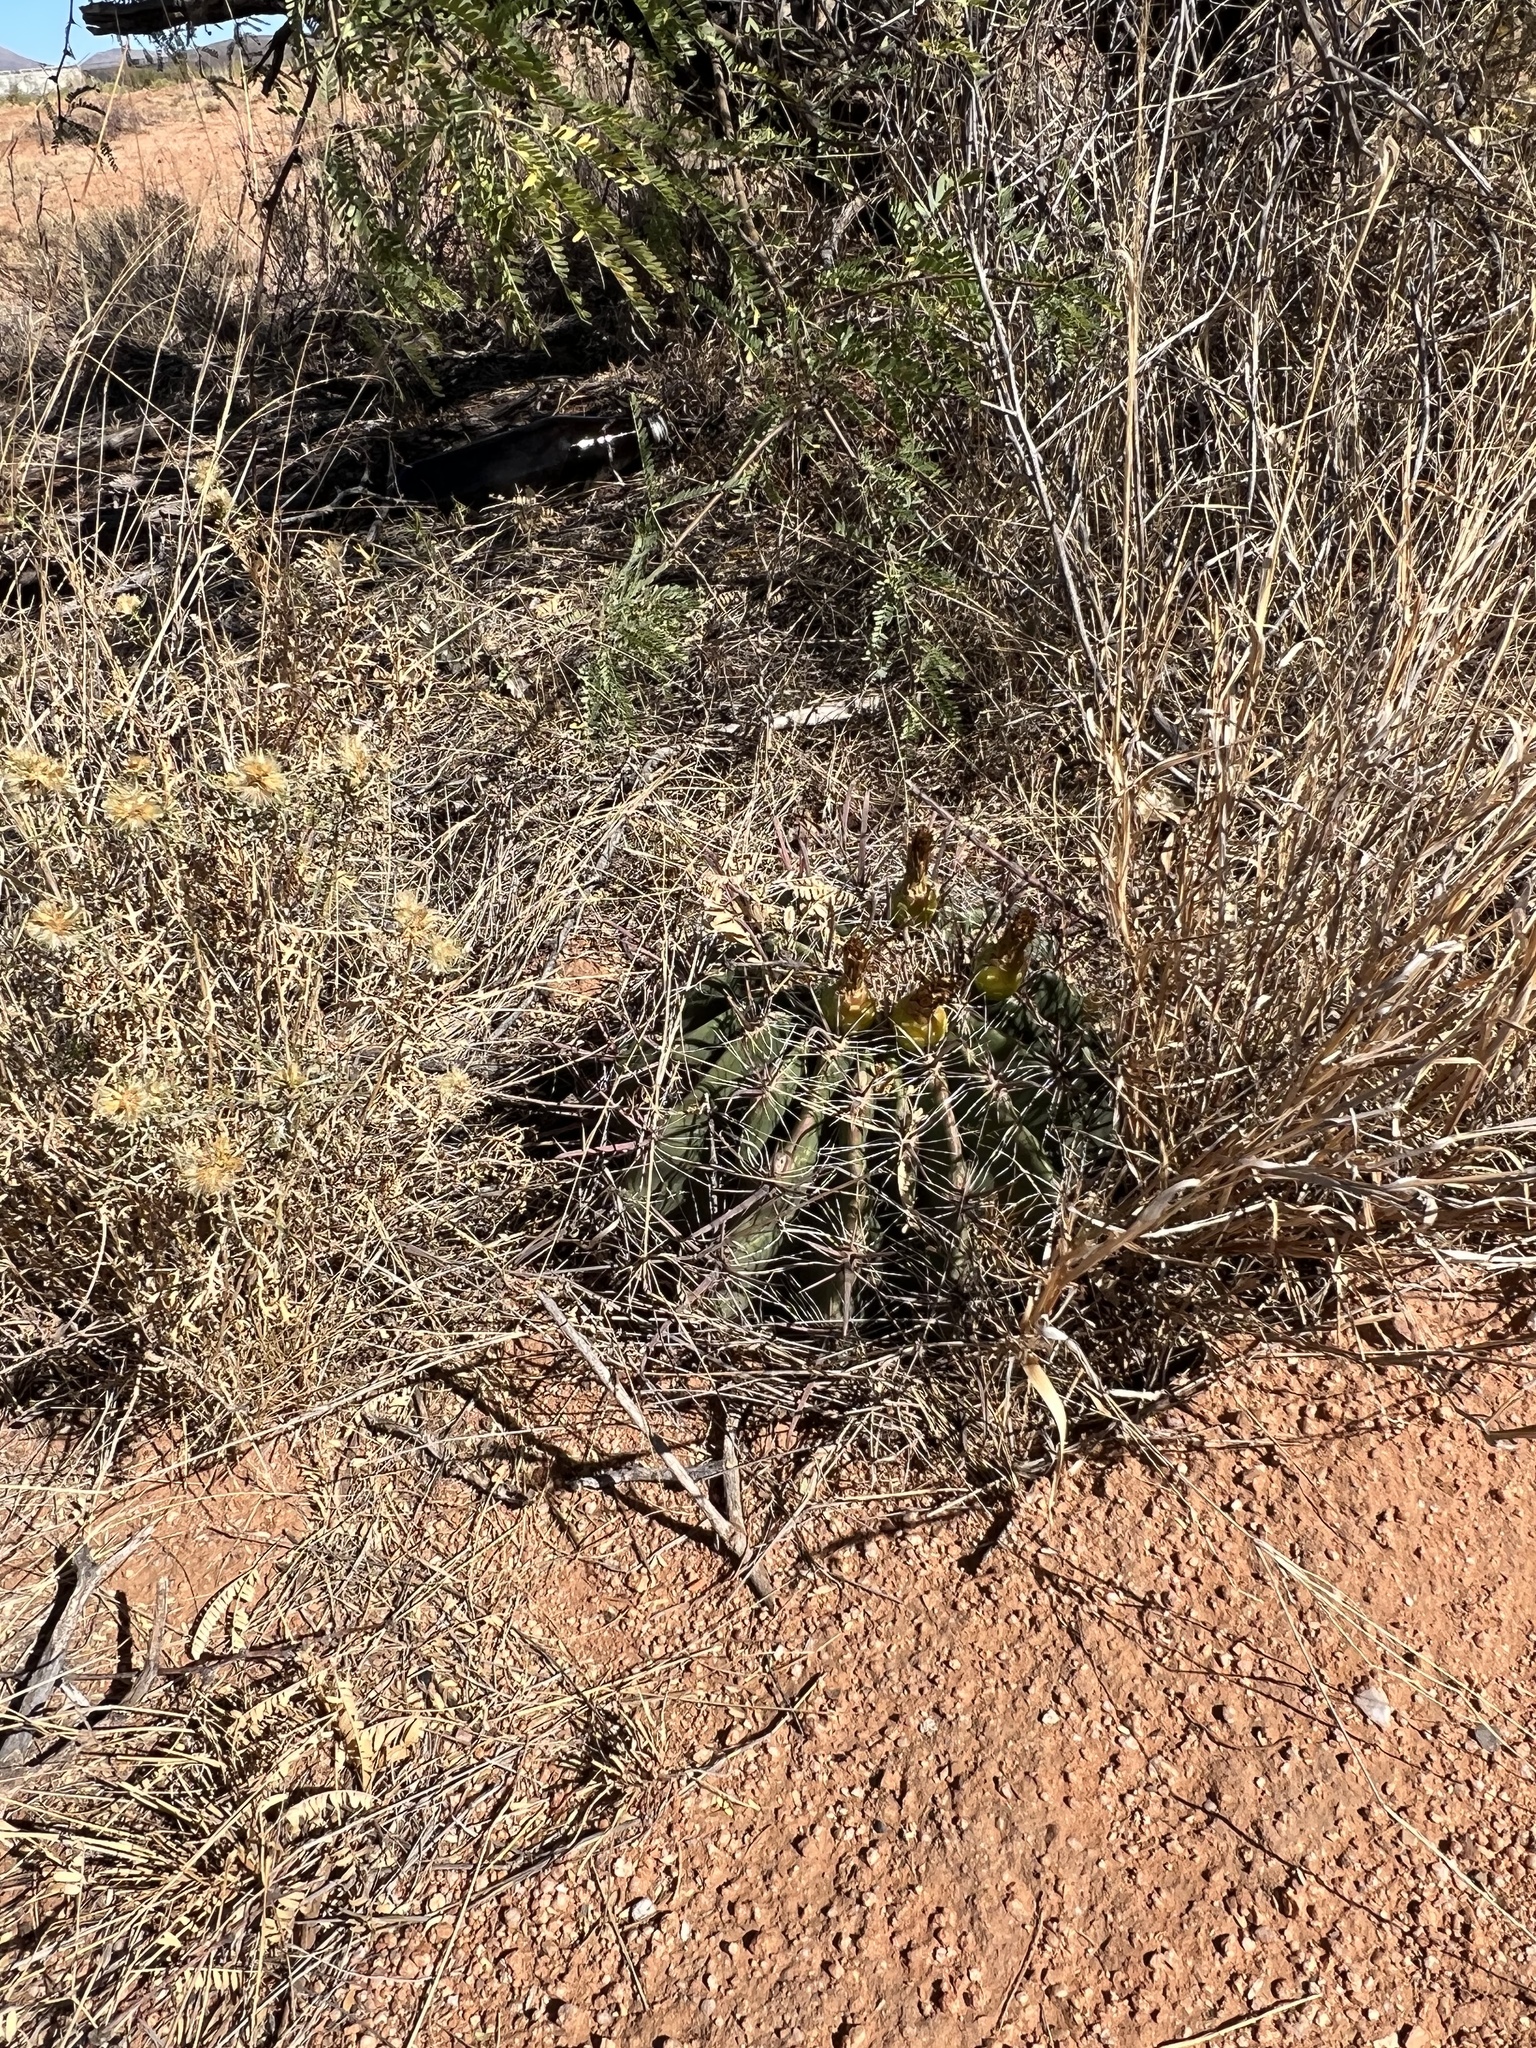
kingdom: Plantae
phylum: Tracheophyta
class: Magnoliopsida
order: Caryophyllales
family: Cactaceae
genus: Ferocactus
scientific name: Ferocactus wislizeni
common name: Candy barrel cactus
